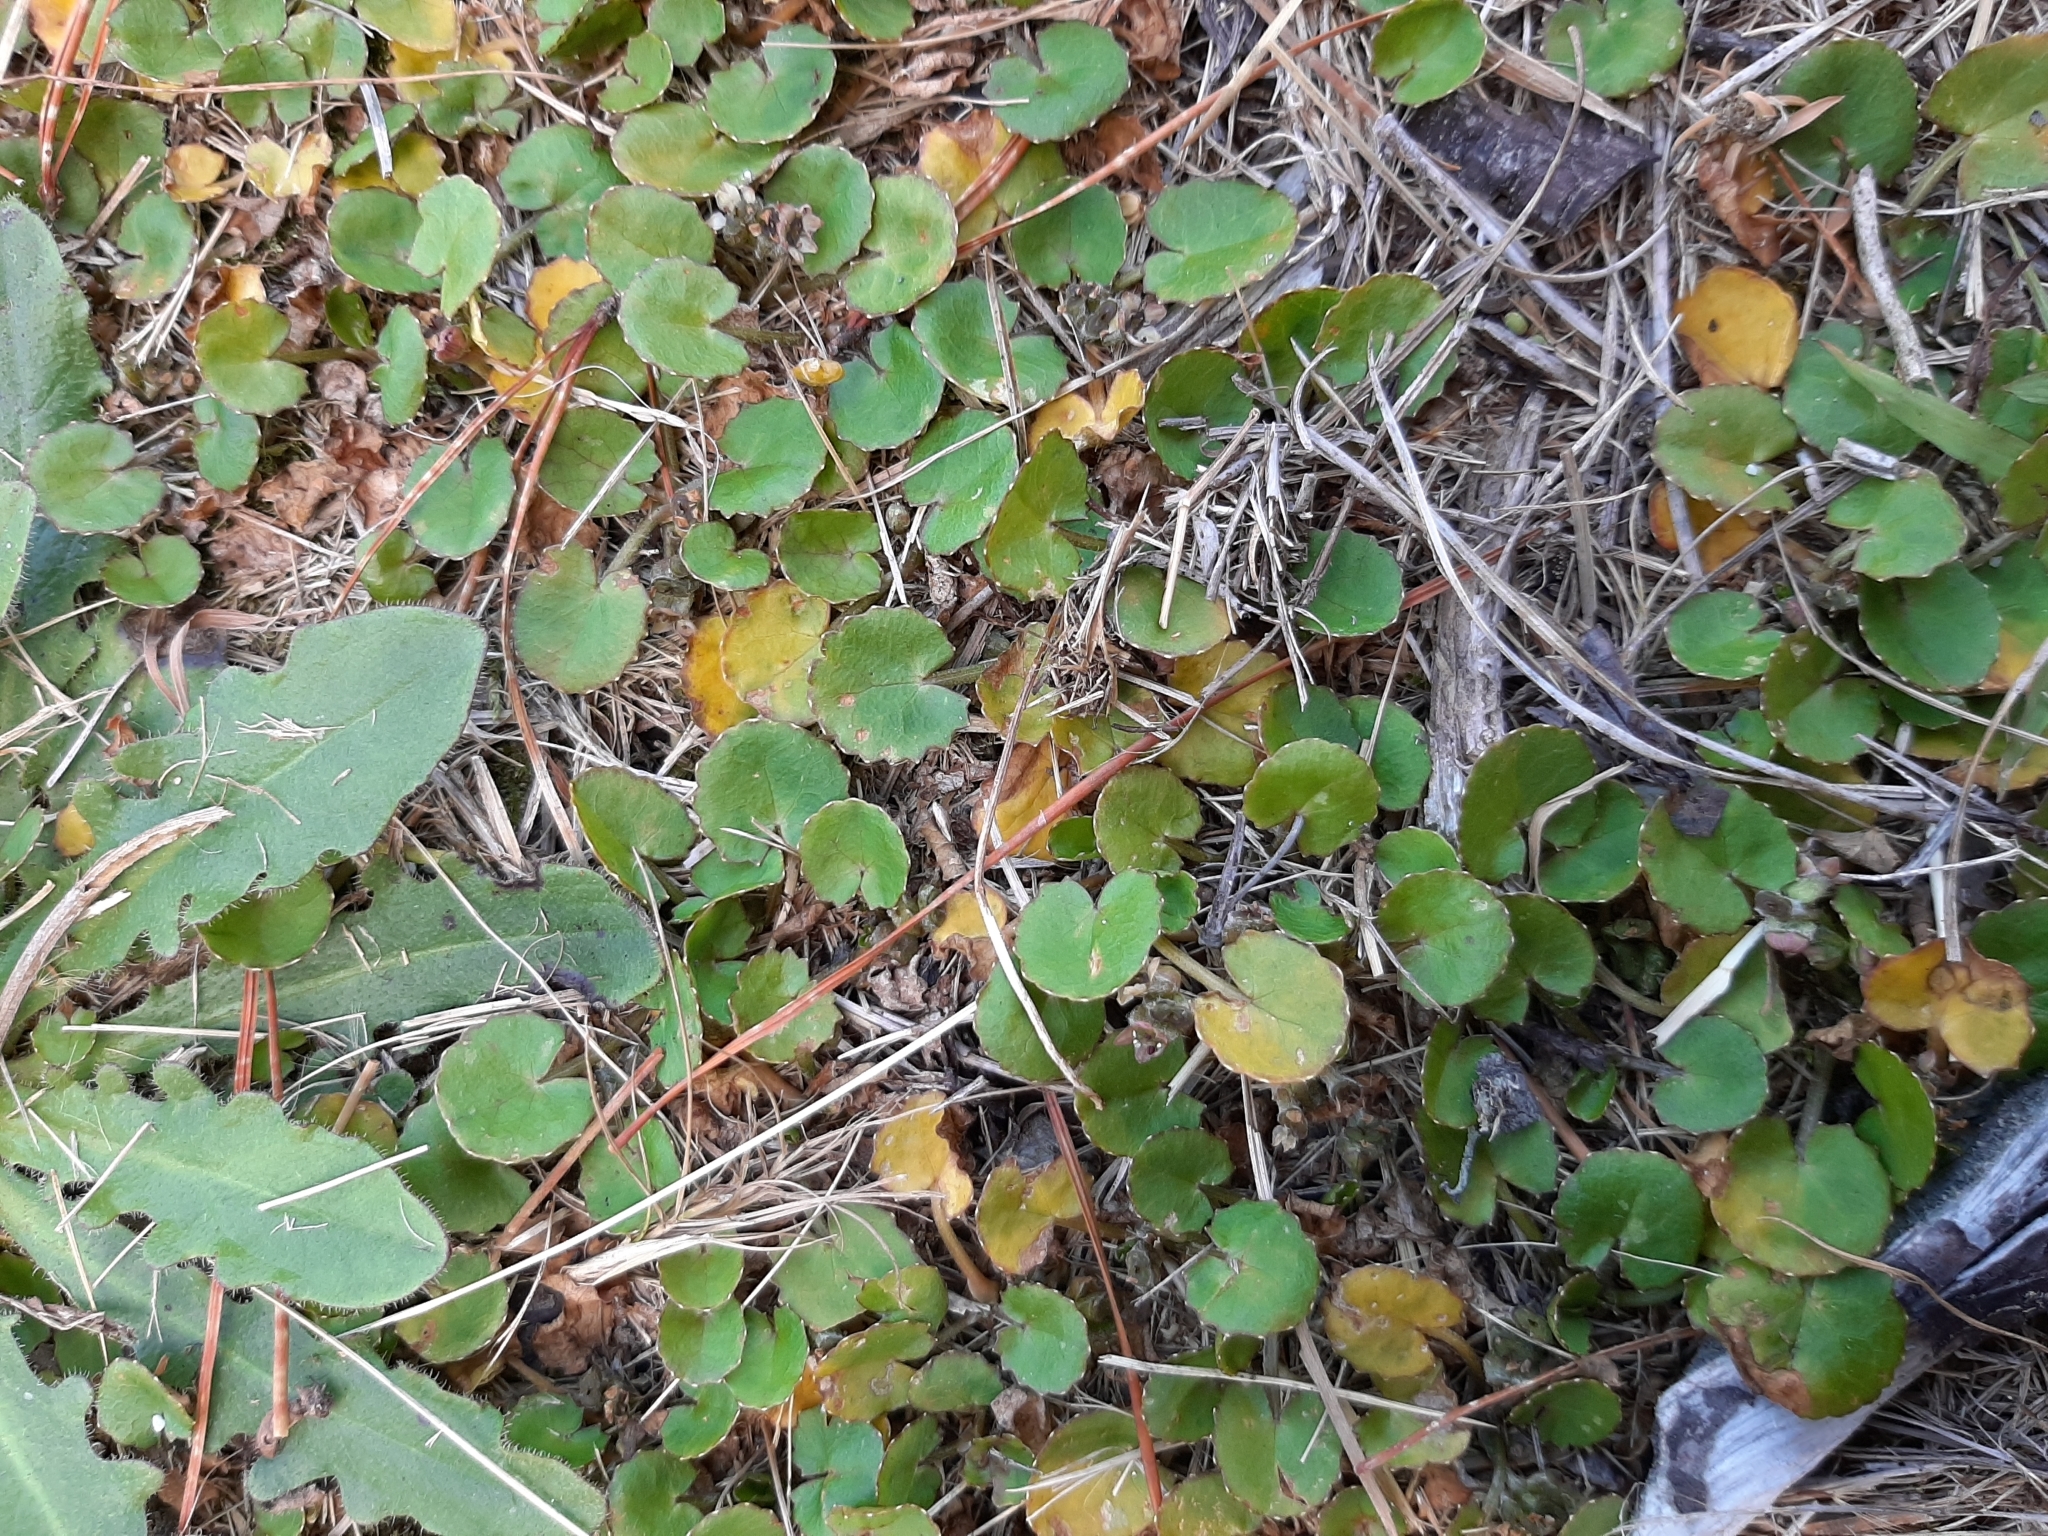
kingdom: Plantae
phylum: Tracheophyta
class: Magnoliopsida
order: Apiales
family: Apiaceae
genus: Centella
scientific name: Centella uniflora
